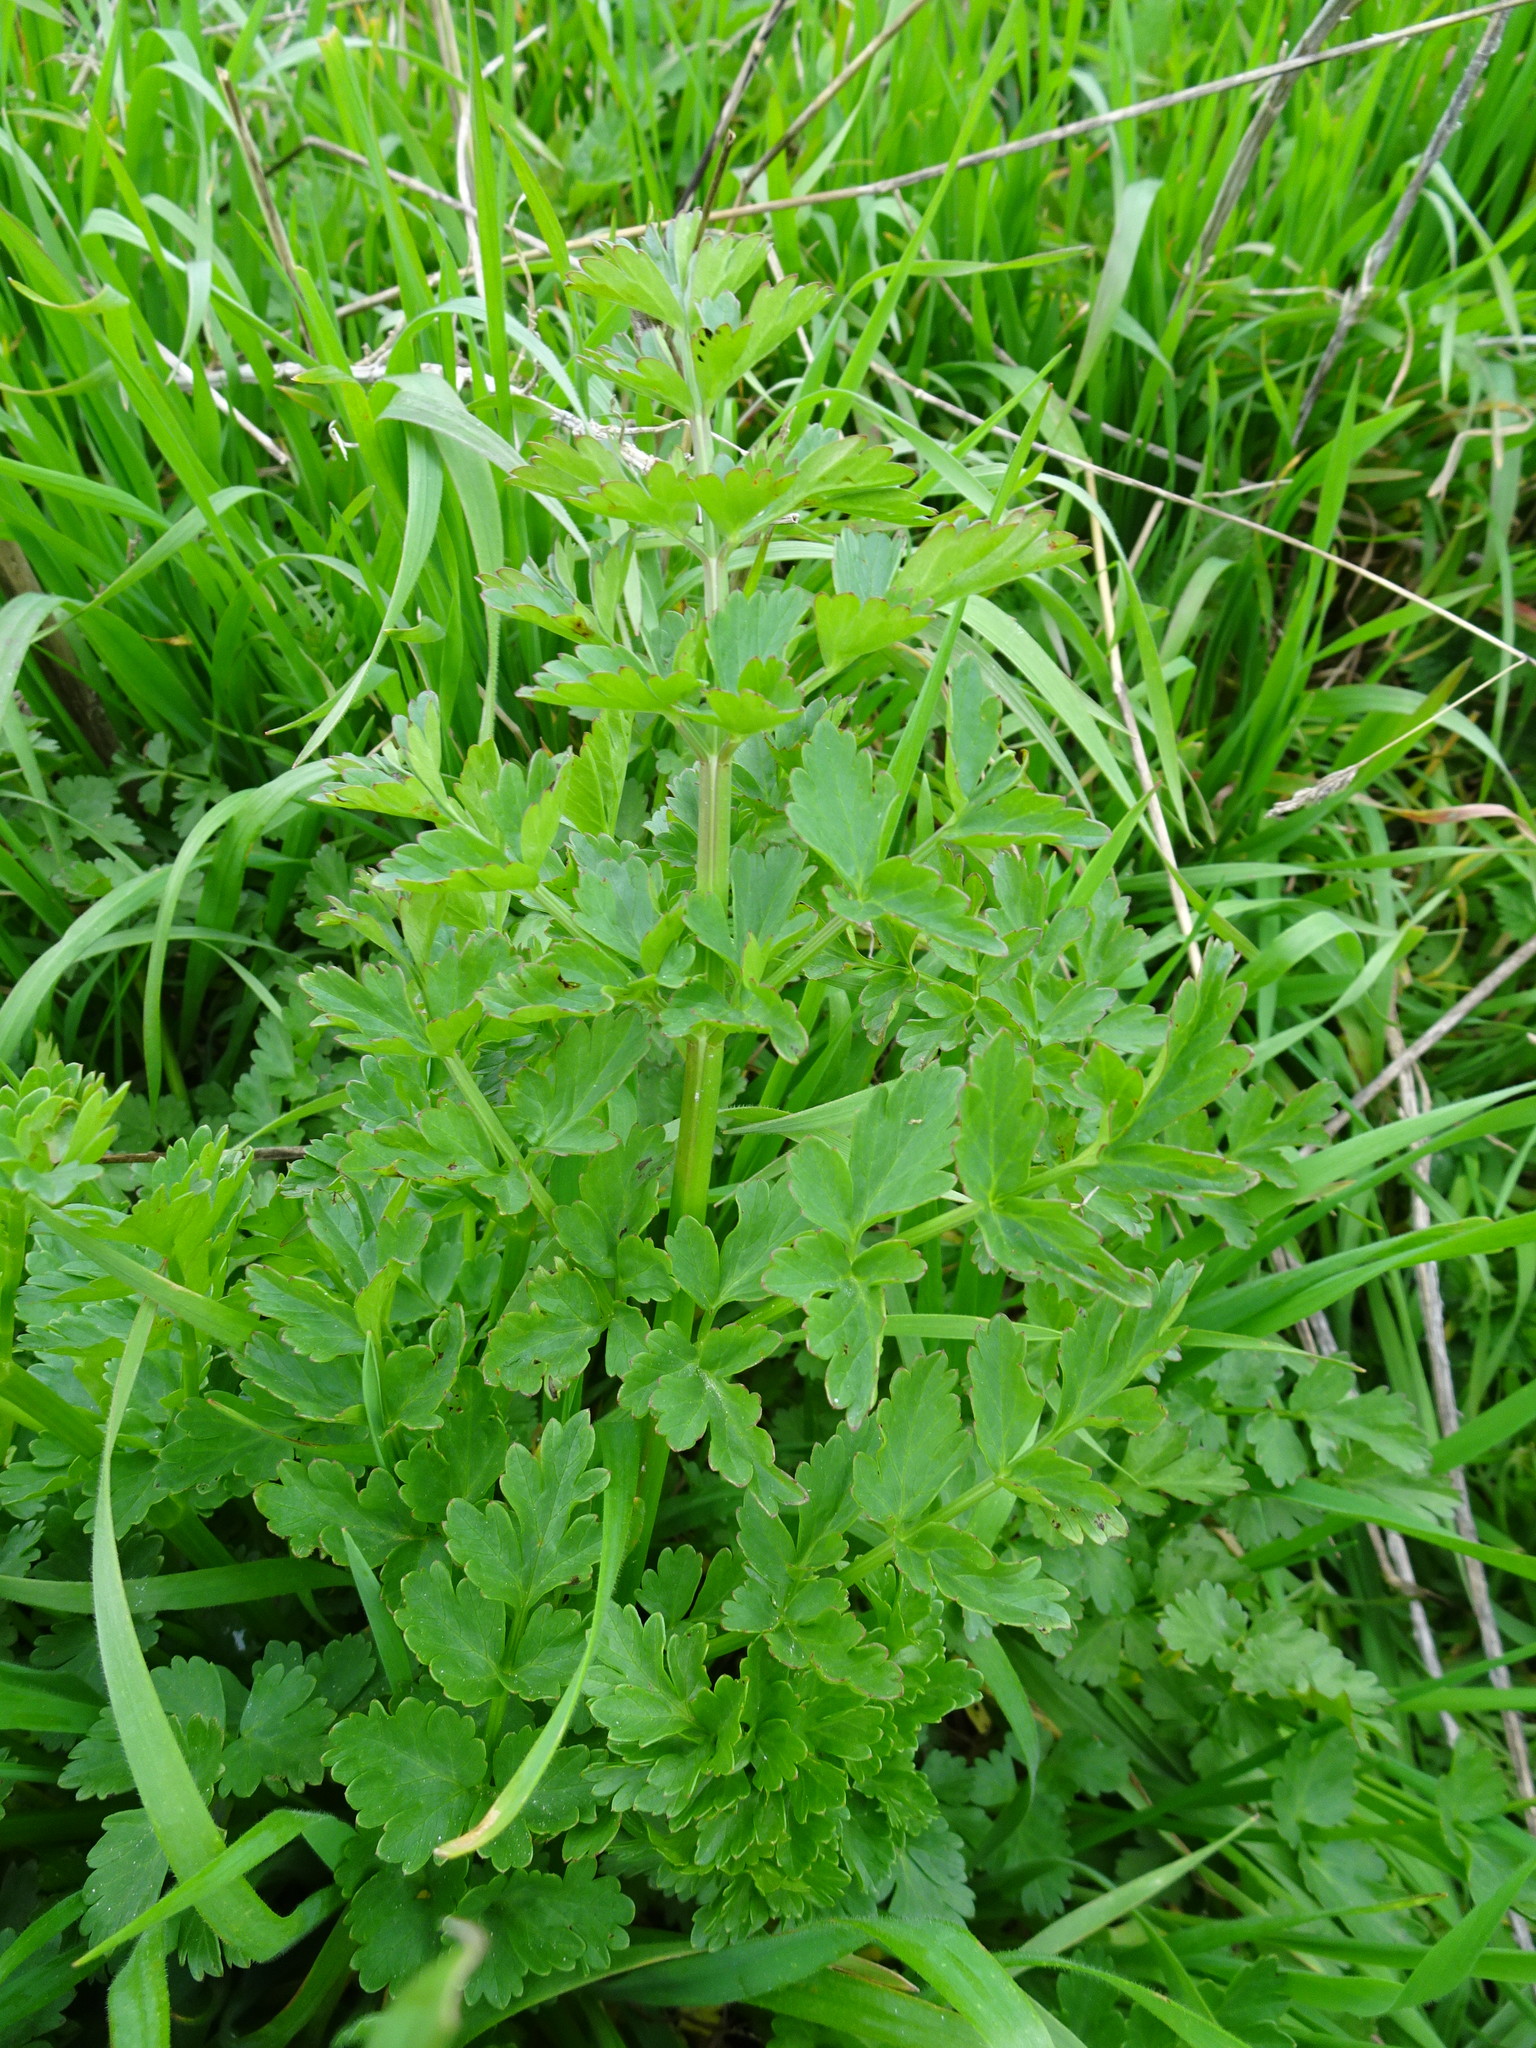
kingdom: Plantae
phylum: Tracheophyta
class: Magnoliopsida
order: Apiales
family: Apiaceae
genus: Oenanthe
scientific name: Oenanthe crocata
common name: Hemlock water-dropwort
